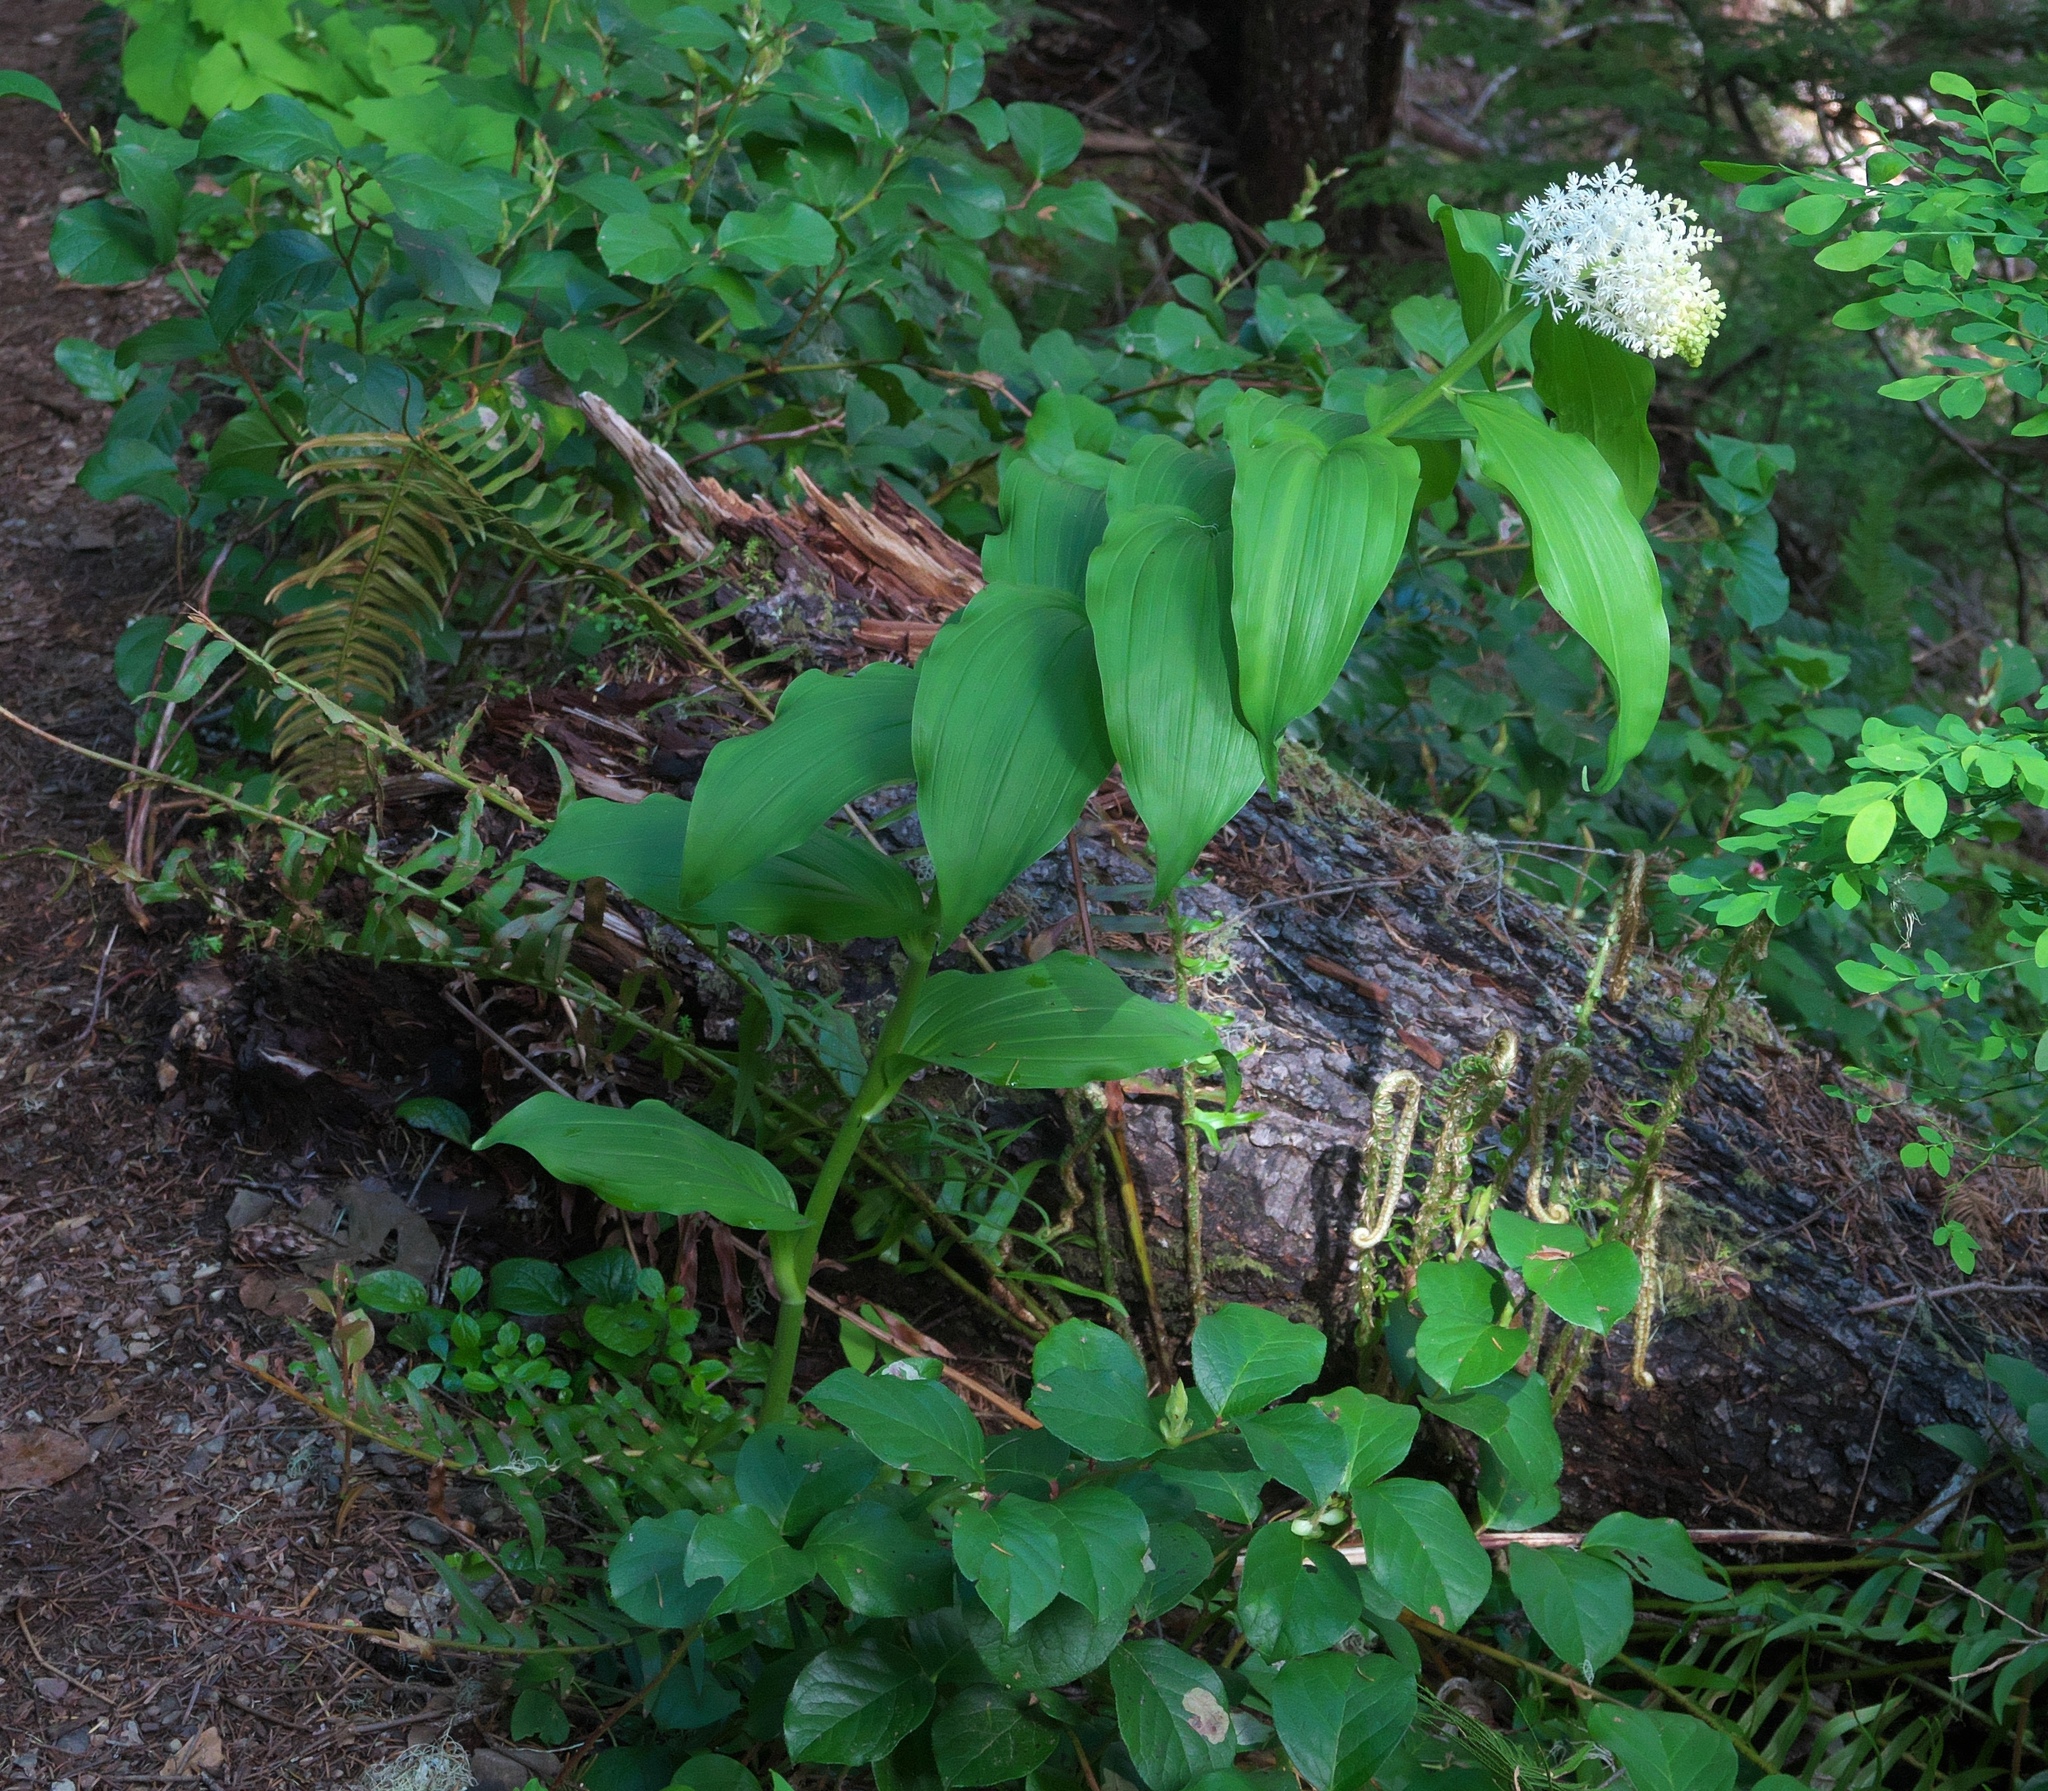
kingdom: Plantae
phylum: Tracheophyta
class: Liliopsida
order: Asparagales
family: Asparagaceae
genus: Maianthemum
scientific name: Maianthemum racemosum
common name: False spikenard
